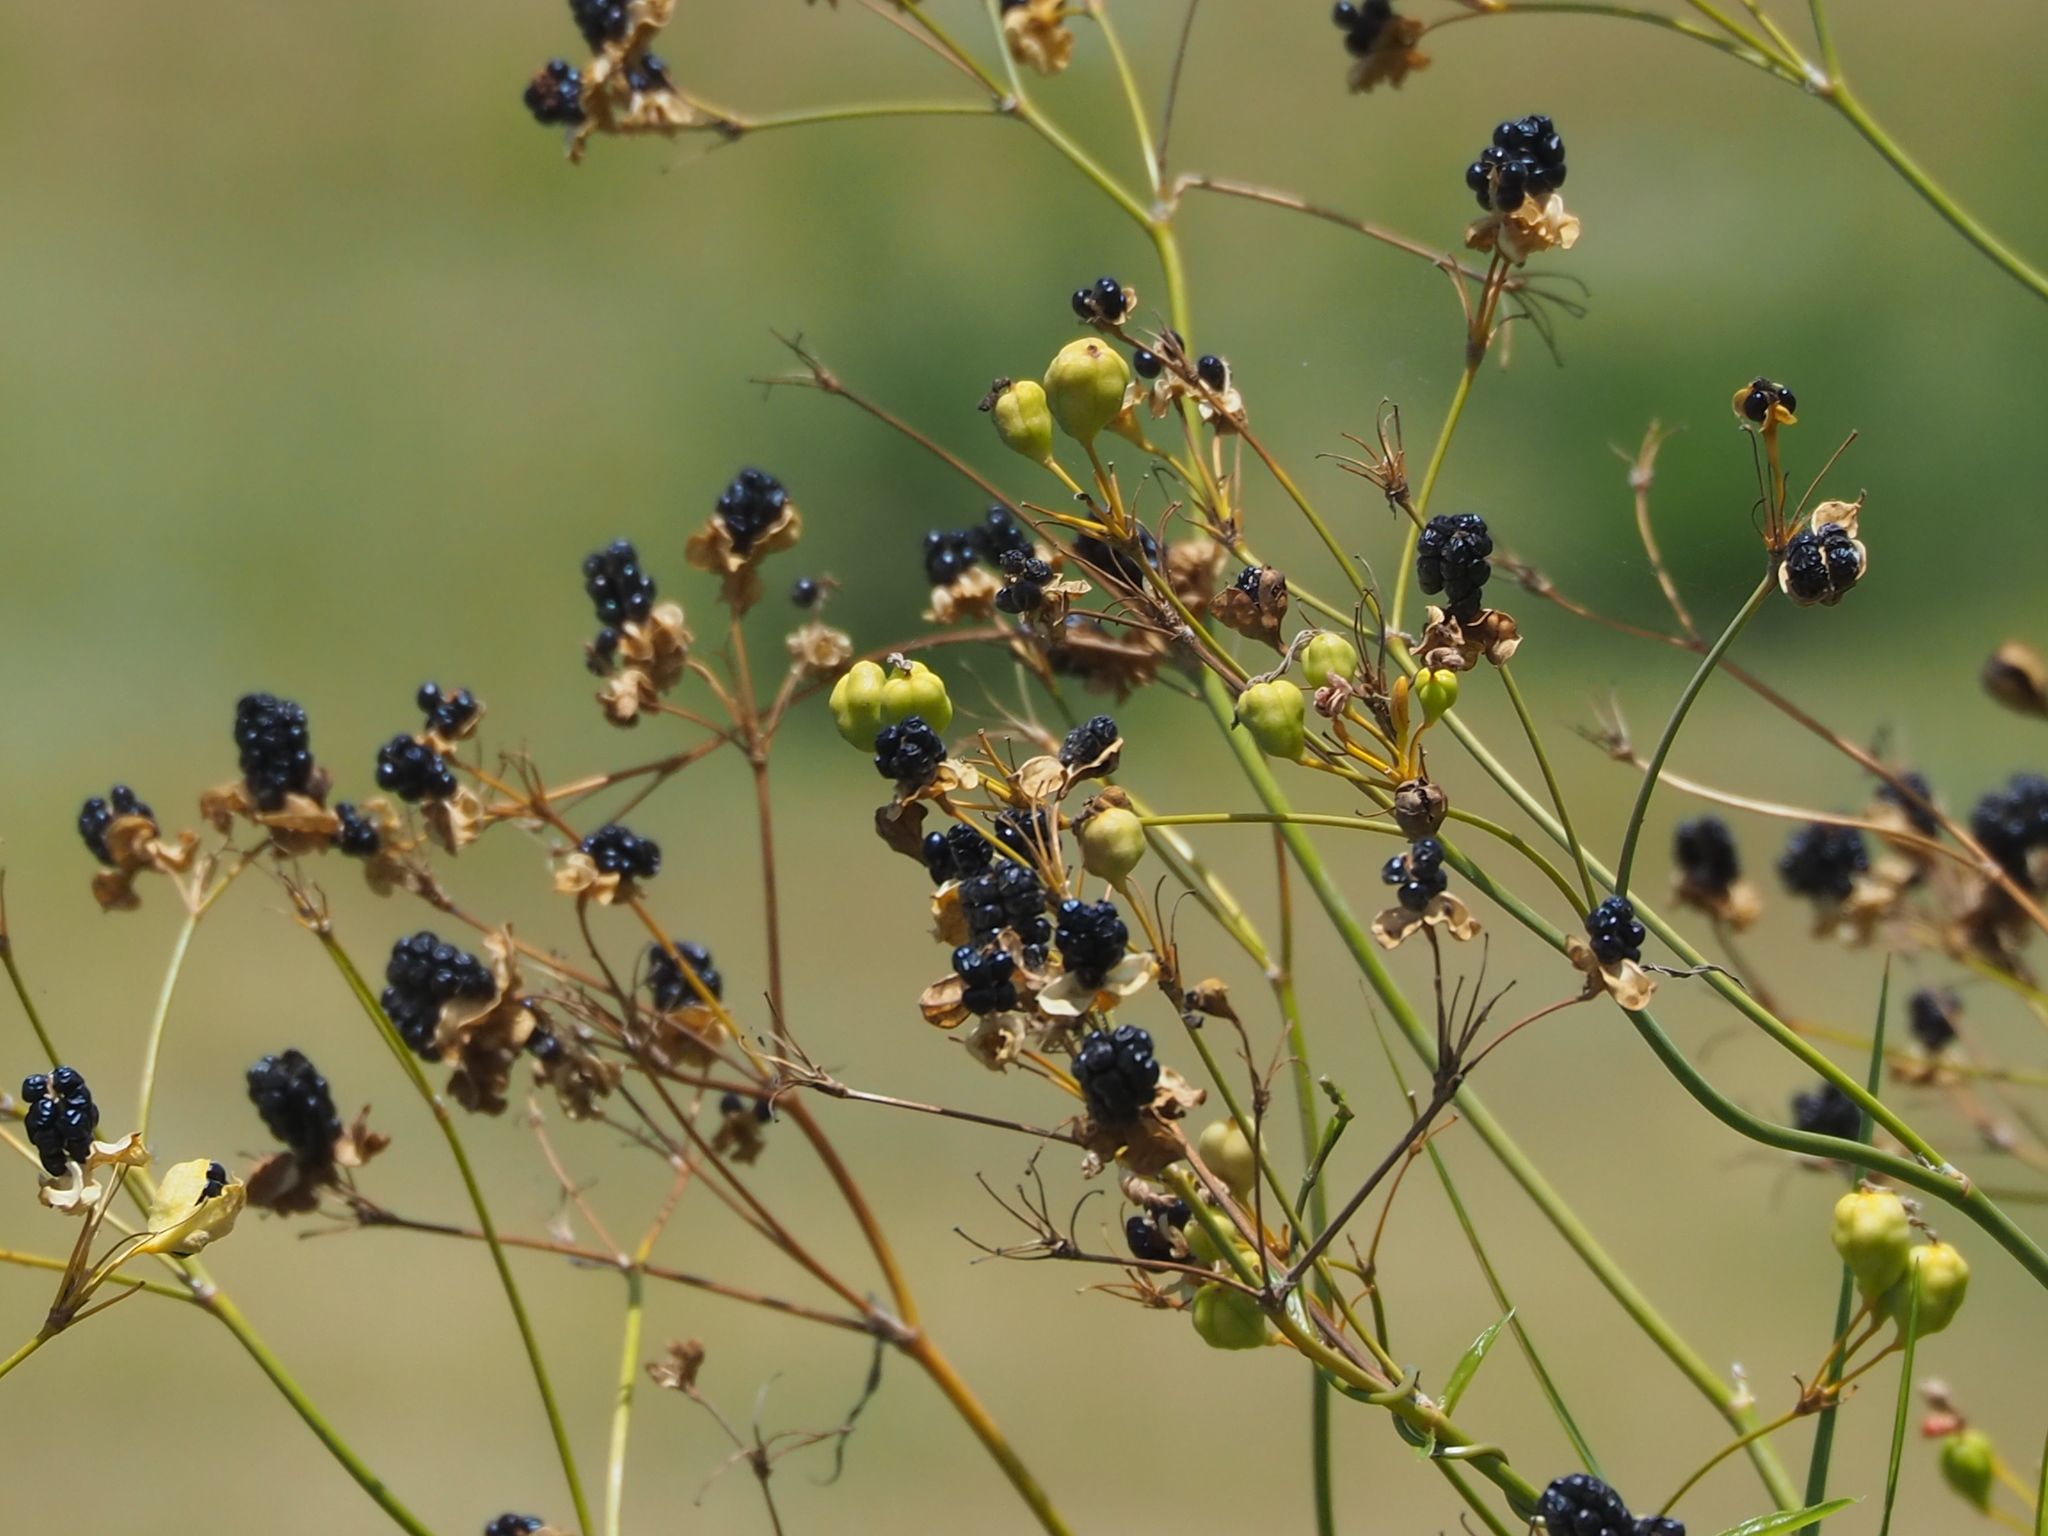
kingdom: Plantae
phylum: Tracheophyta
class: Liliopsida
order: Asparagales
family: Iridaceae
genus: Iris
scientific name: Iris domestica
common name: Belamcanda
